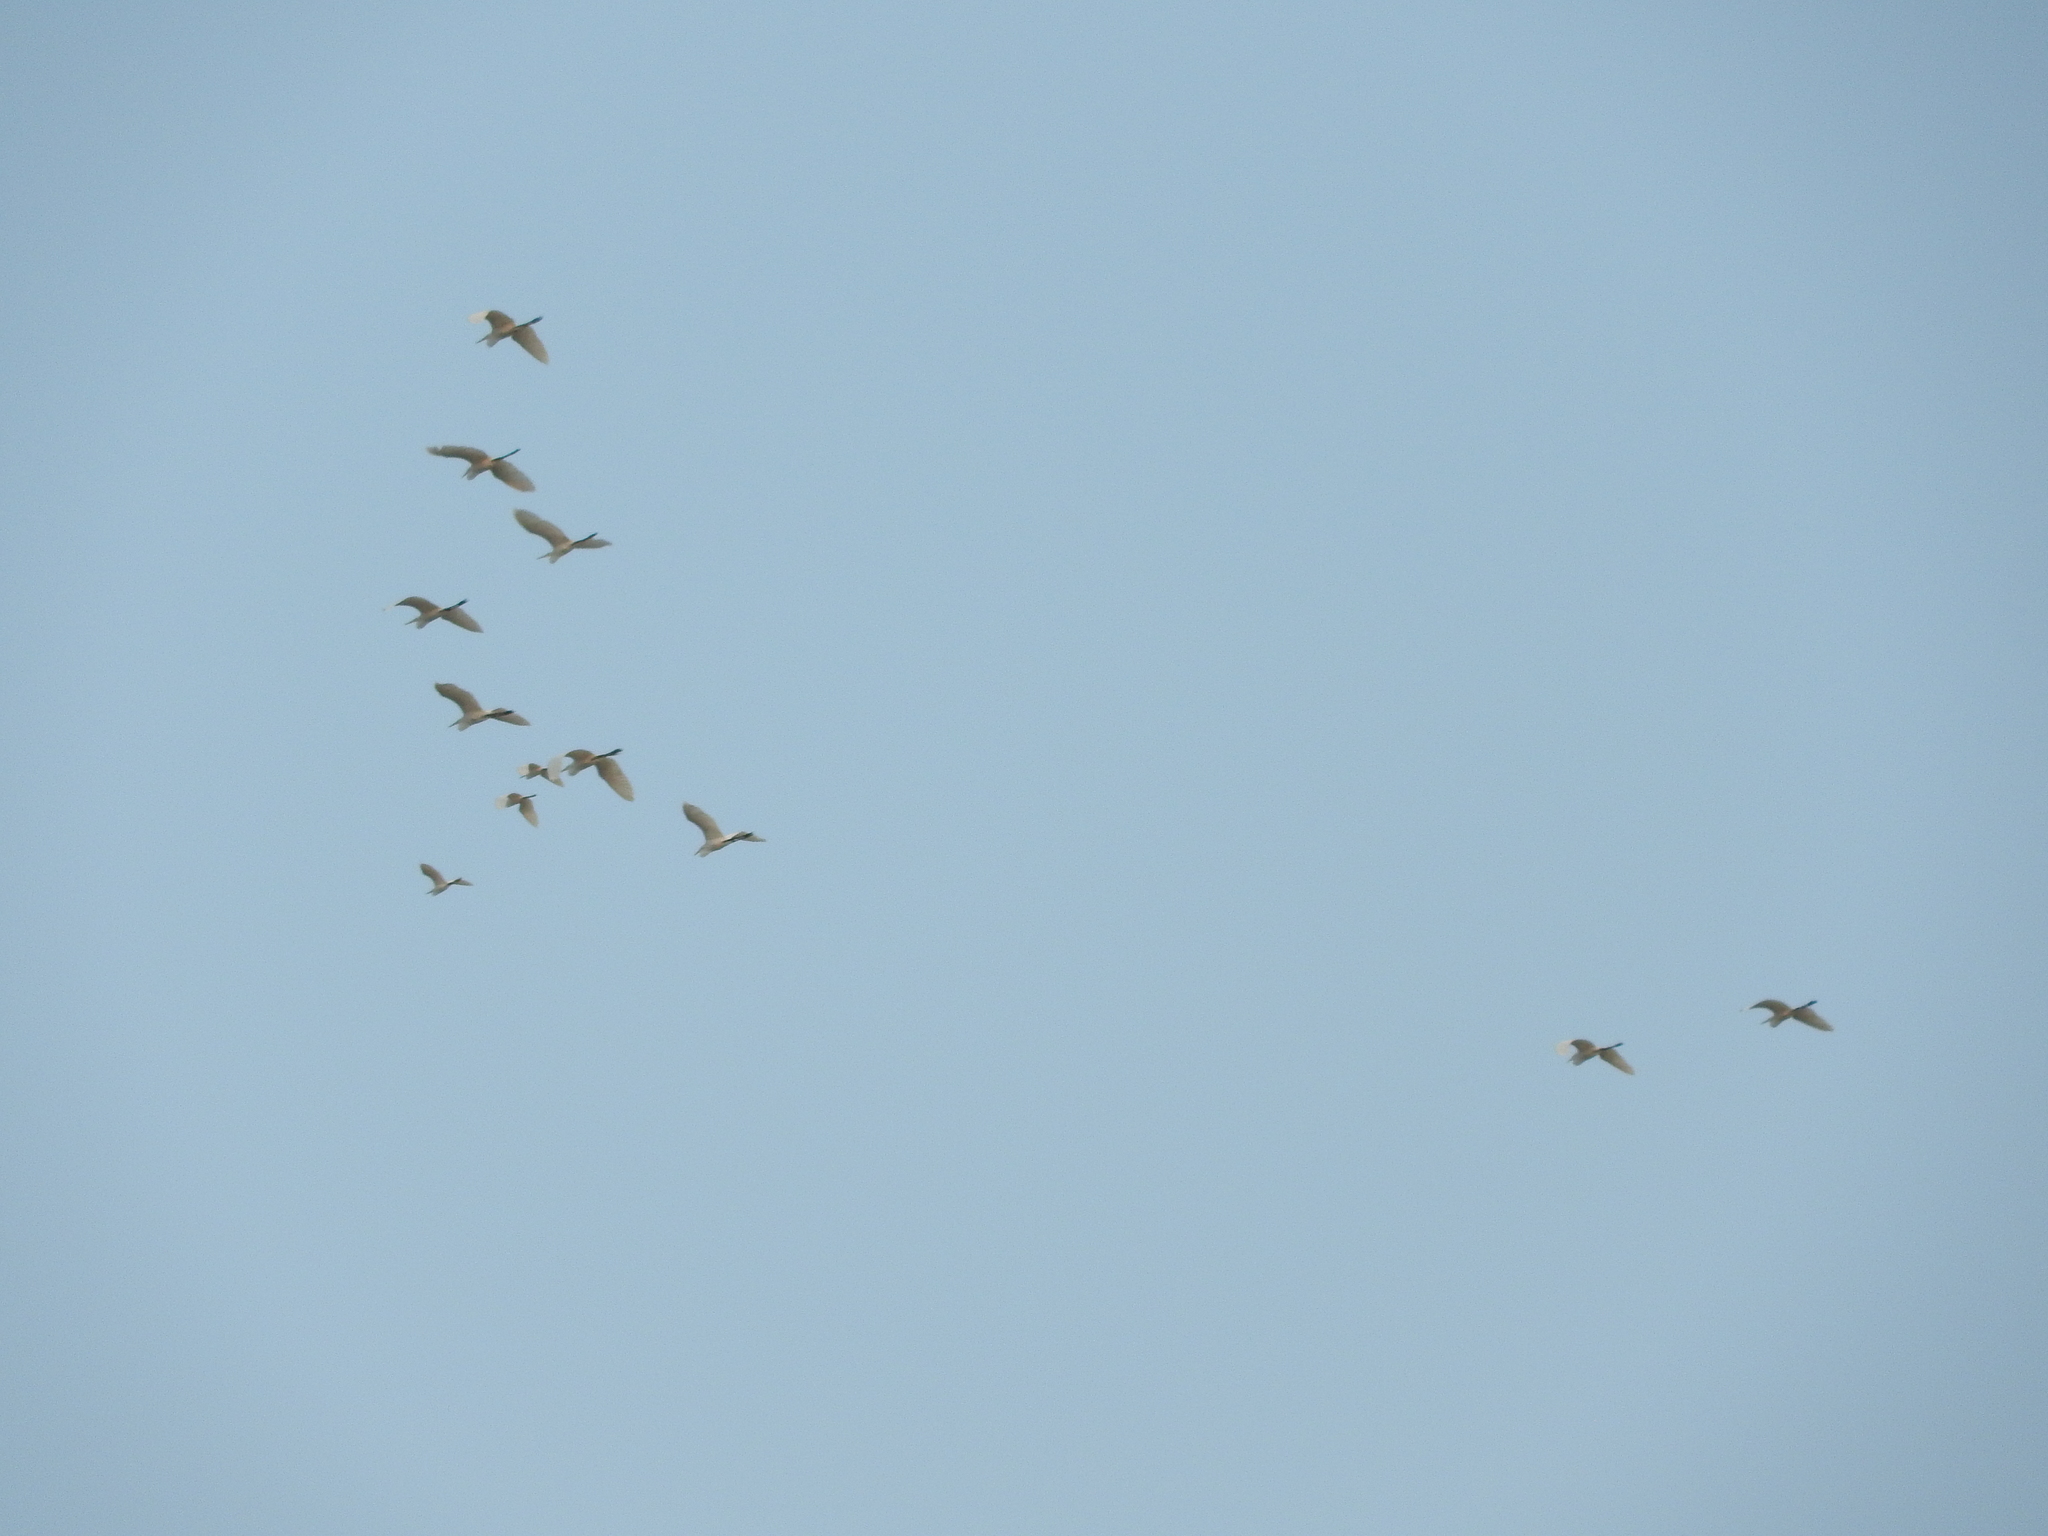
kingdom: Animalia
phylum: Chordata
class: Aves
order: Pelecaniformes
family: Ardeidae
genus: Ardea
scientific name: Ardea alba
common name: Great egret
